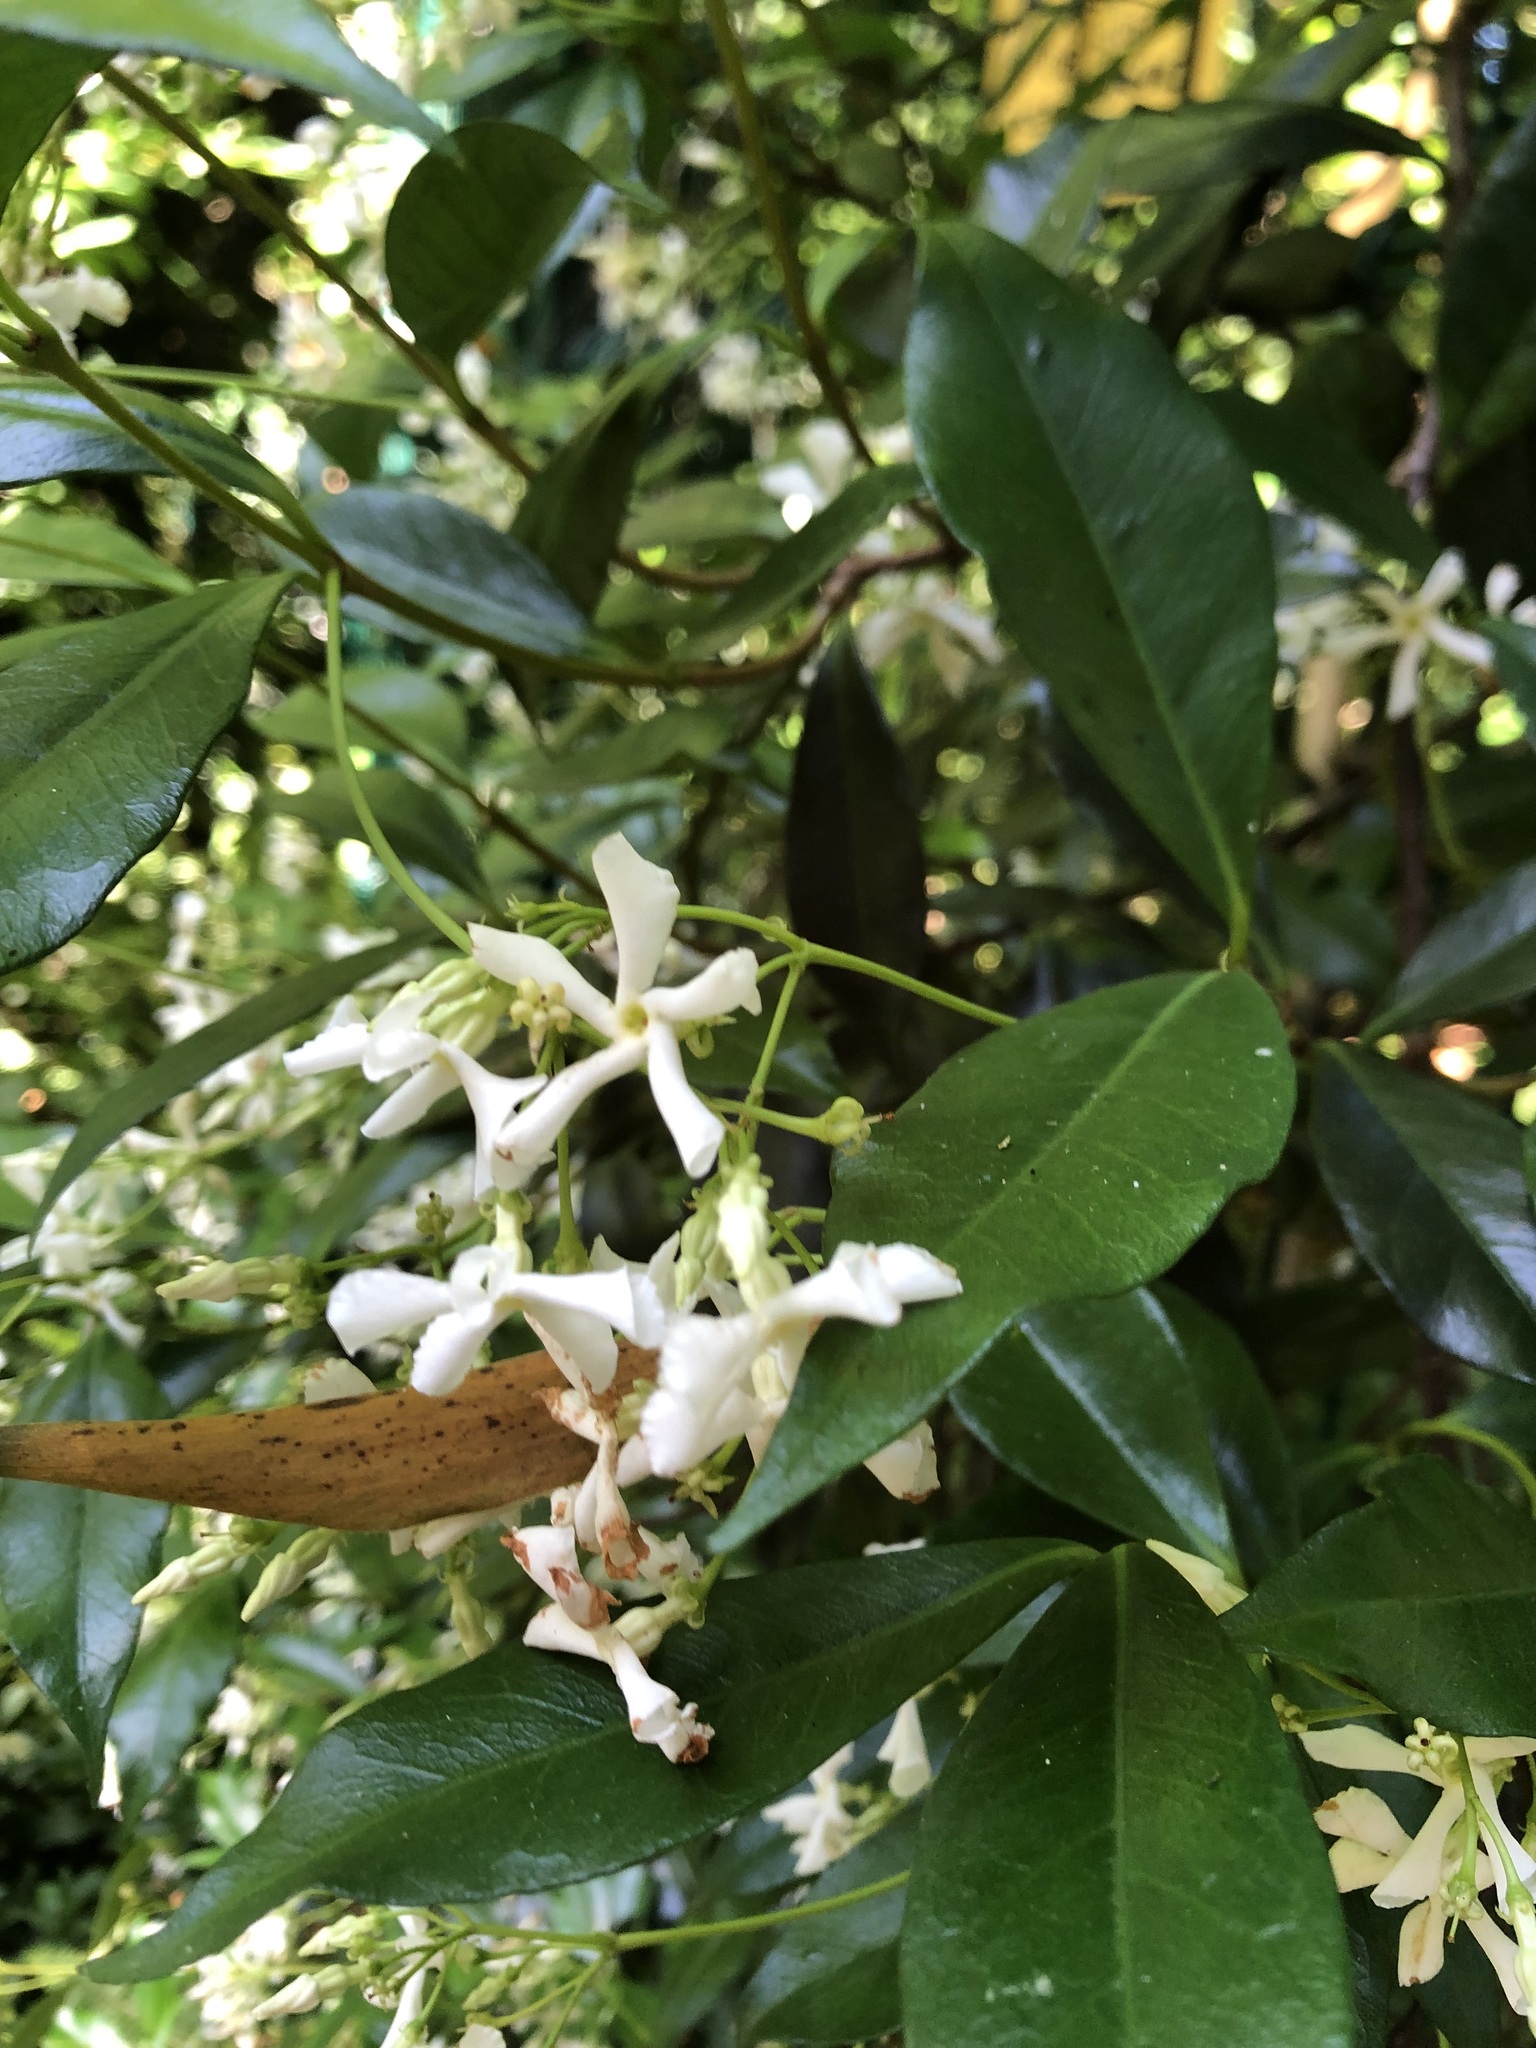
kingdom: Plantae
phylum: Tracheophyta
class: Magnoliopsida
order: Gentianales
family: Apocynaceae
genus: Trachelospermum
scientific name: Trachelospermum jasminoides
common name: Confederate jasmine
